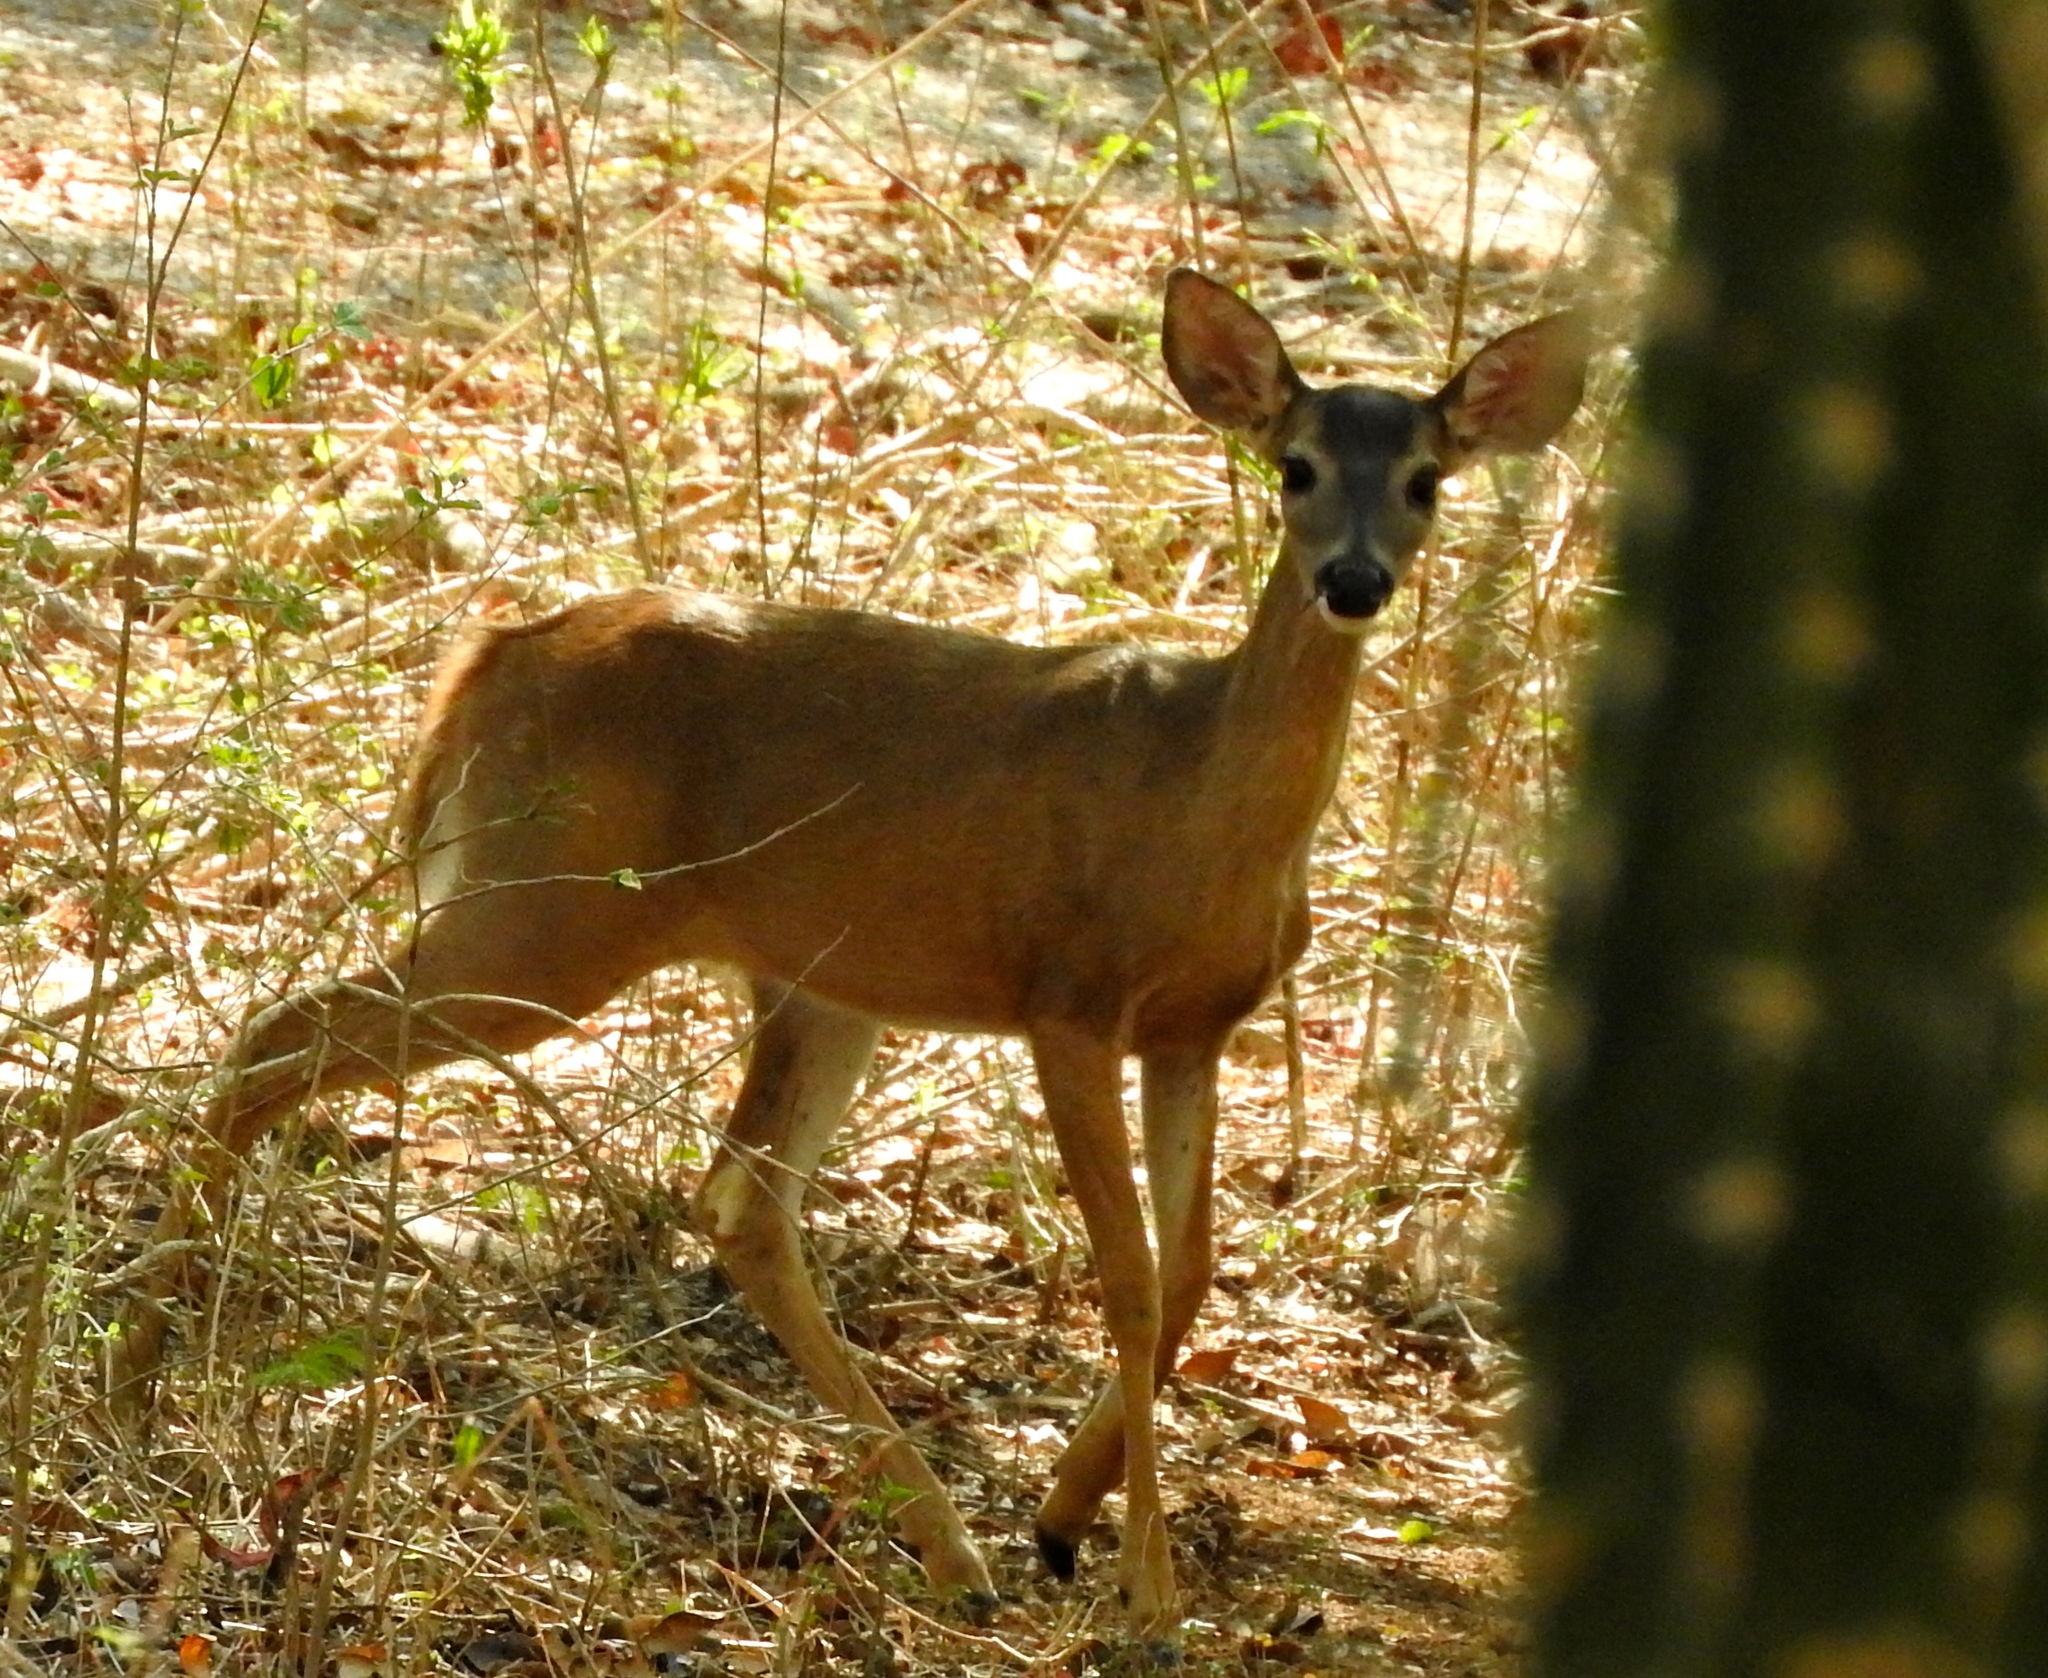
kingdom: Animalia
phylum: Chordata
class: Mammalia
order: Artiodactyla
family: Cervidae
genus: Odocoileus
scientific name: Odocoileus virginianus
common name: White-tailed deer
